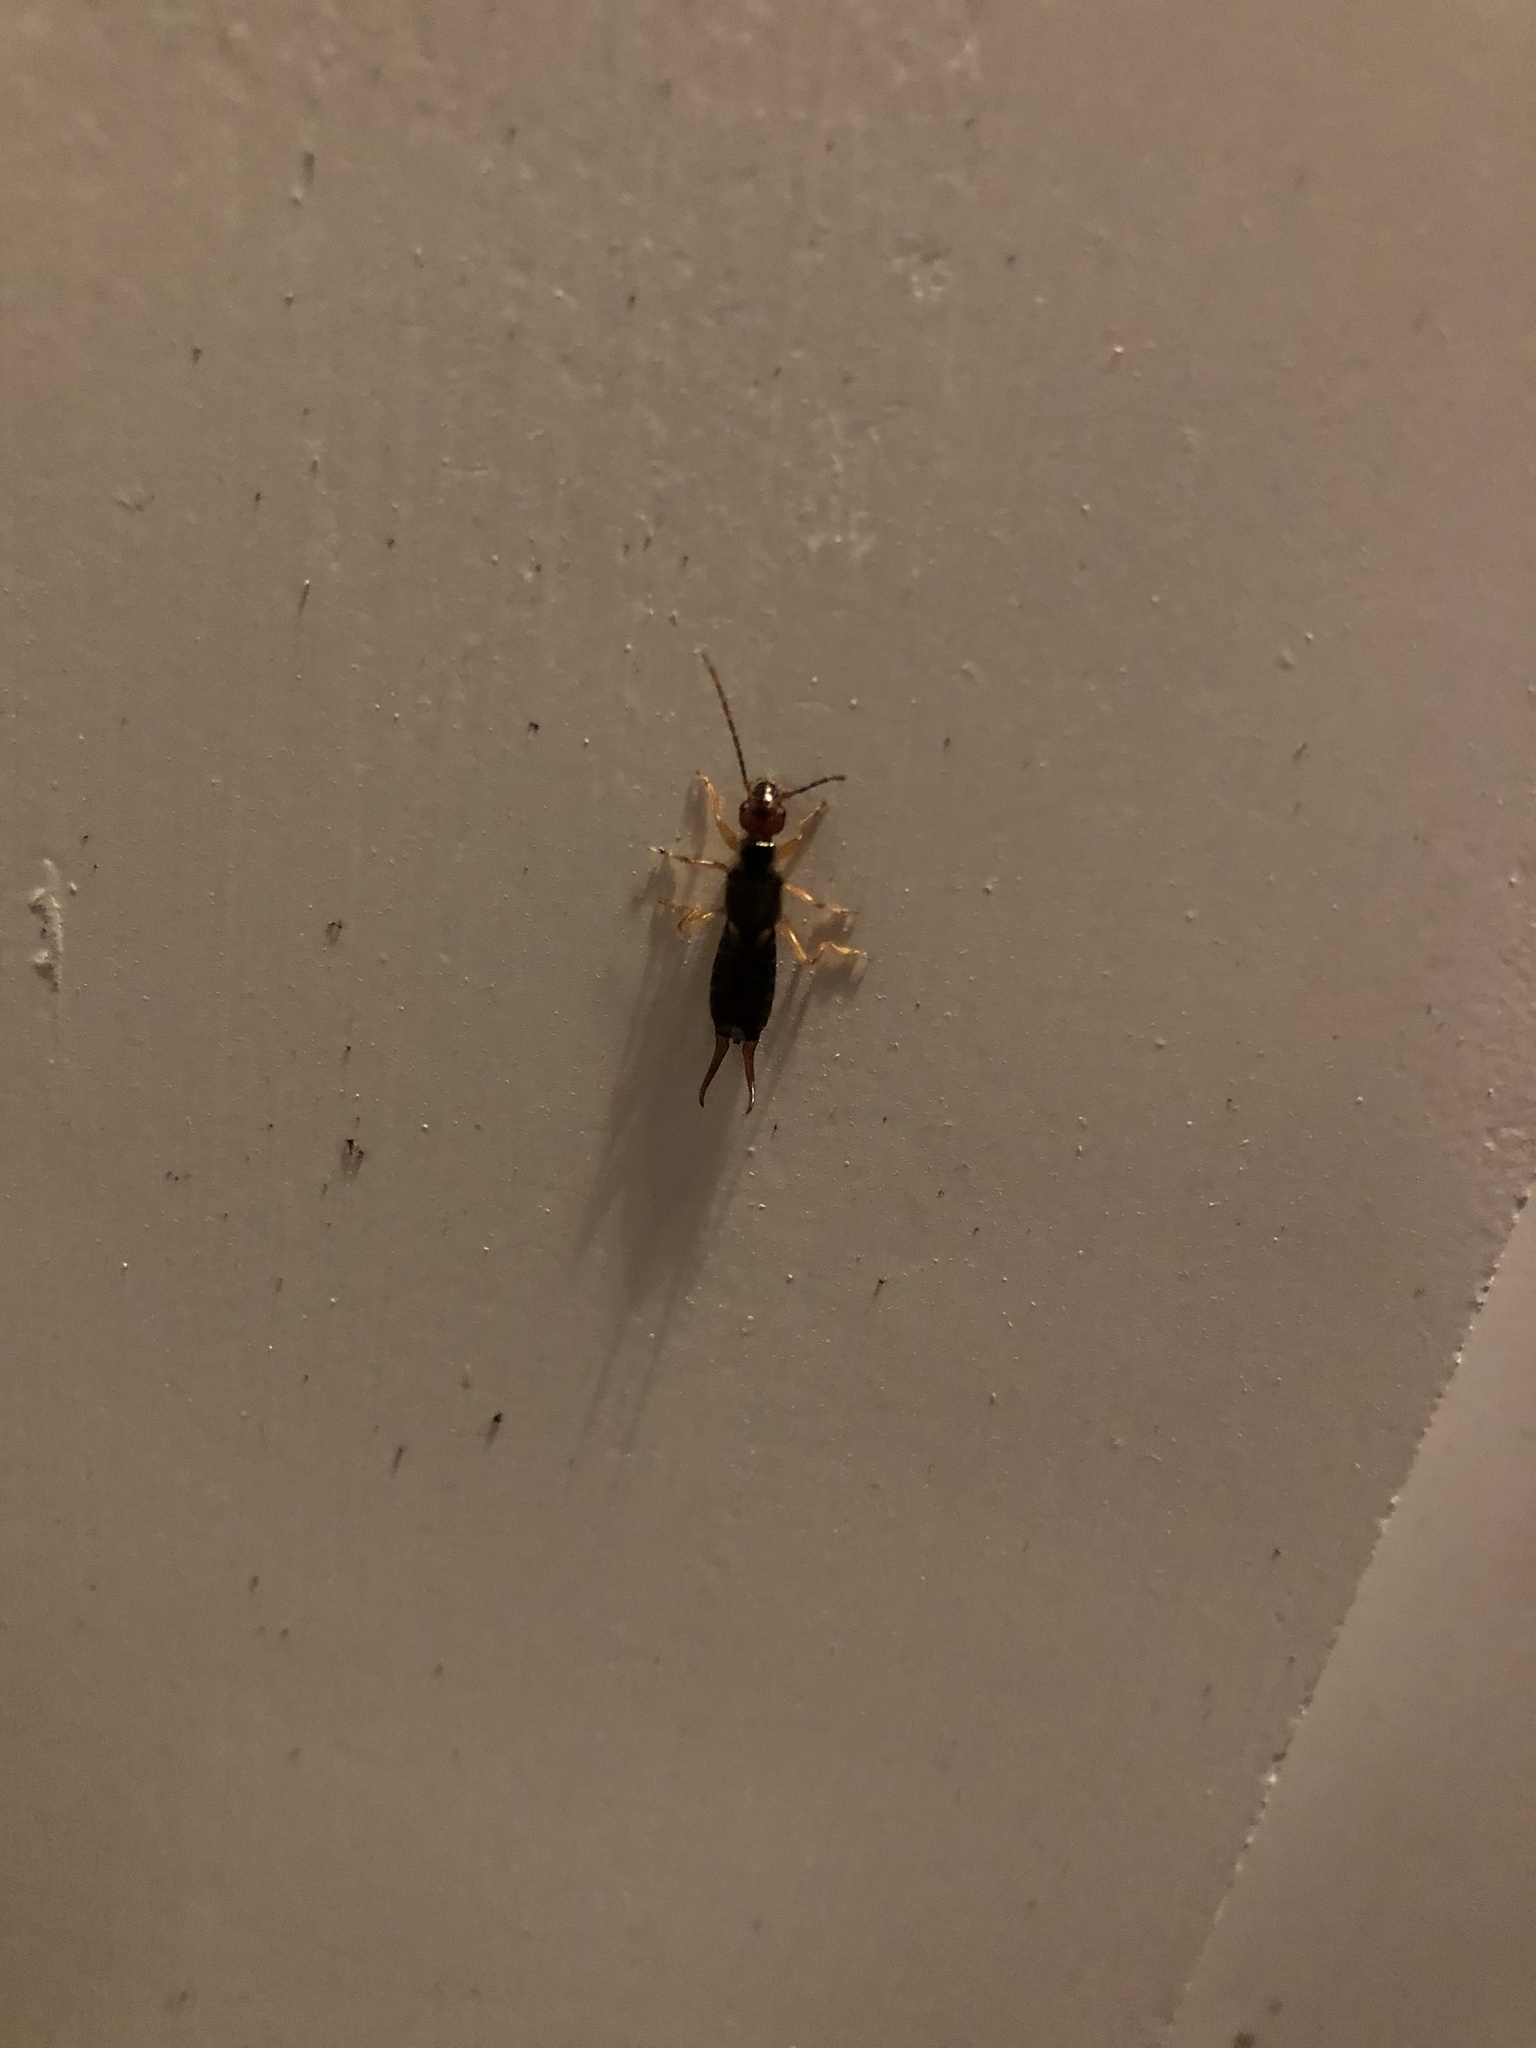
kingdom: Animalia
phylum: Arthropoda
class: Insecta
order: Dermaptera
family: Forficulidae
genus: Forficula
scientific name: Forficula
